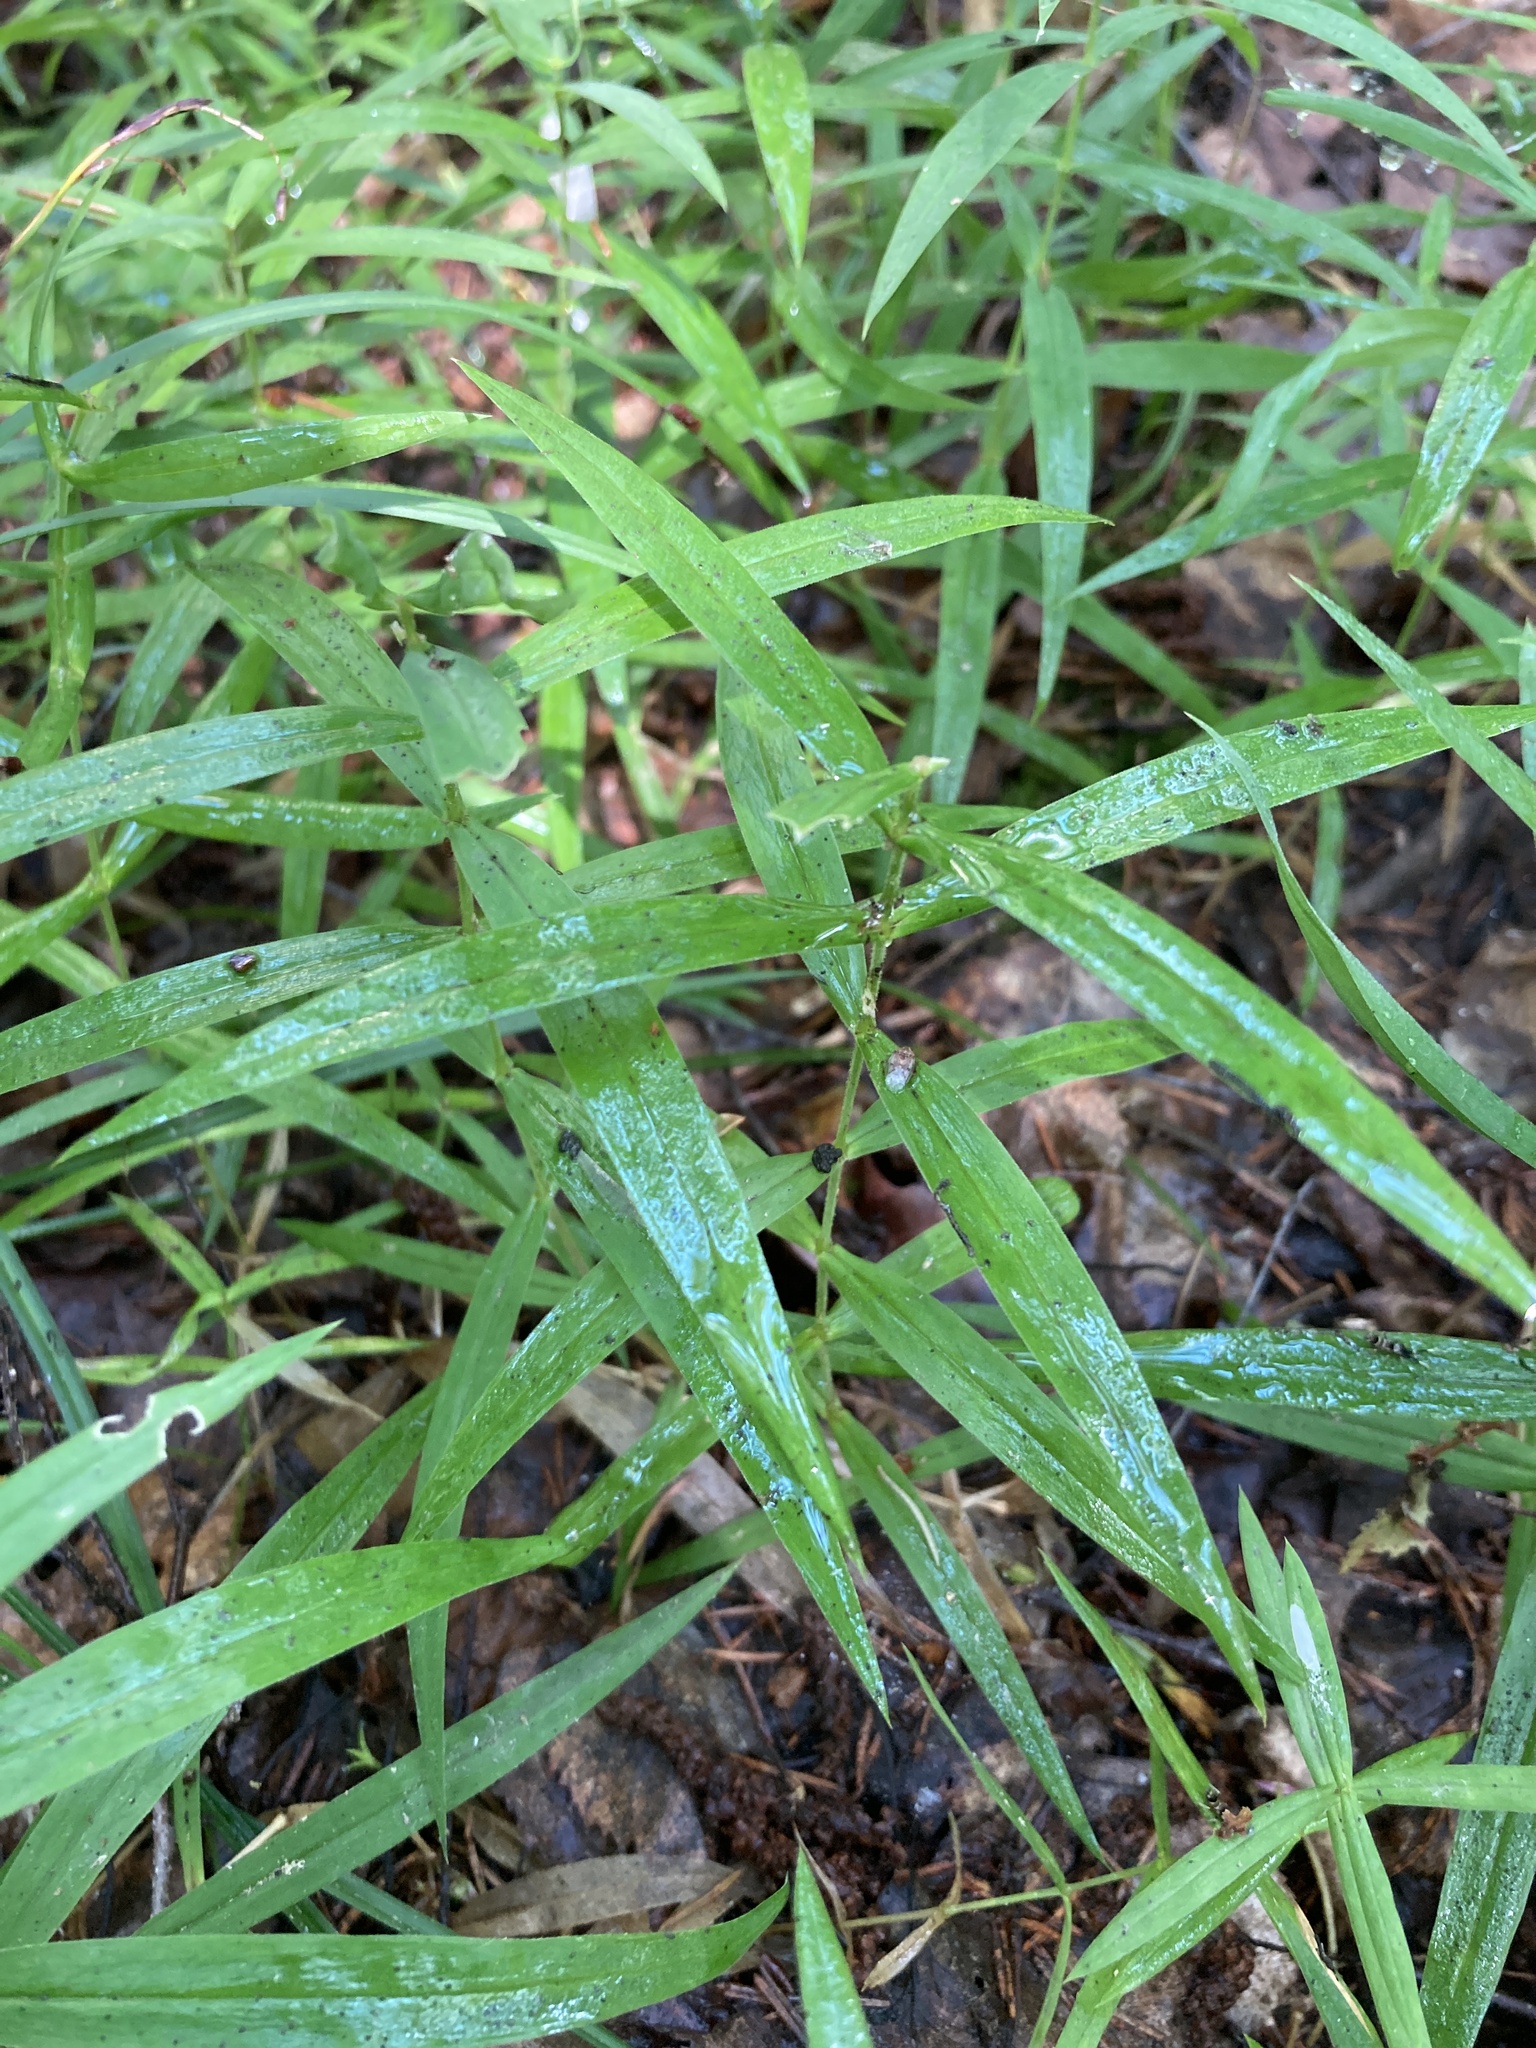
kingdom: Plantae
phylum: Tracheophyta
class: Magnoliopsida
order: Caryophyllales
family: Caryophyllaceae
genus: Rabelera
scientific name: Rabelera holostea
